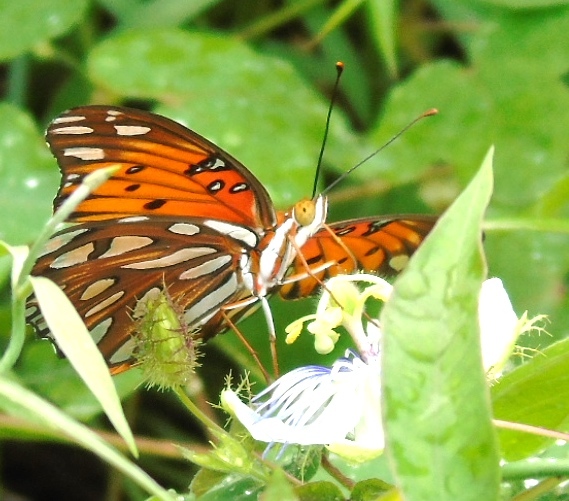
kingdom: Animalia
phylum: Arthropoda
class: Insecta
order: Lepidoptera
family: Nymphalidae
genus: Dione
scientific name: Dione vanillae
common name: Gulf fritillary
